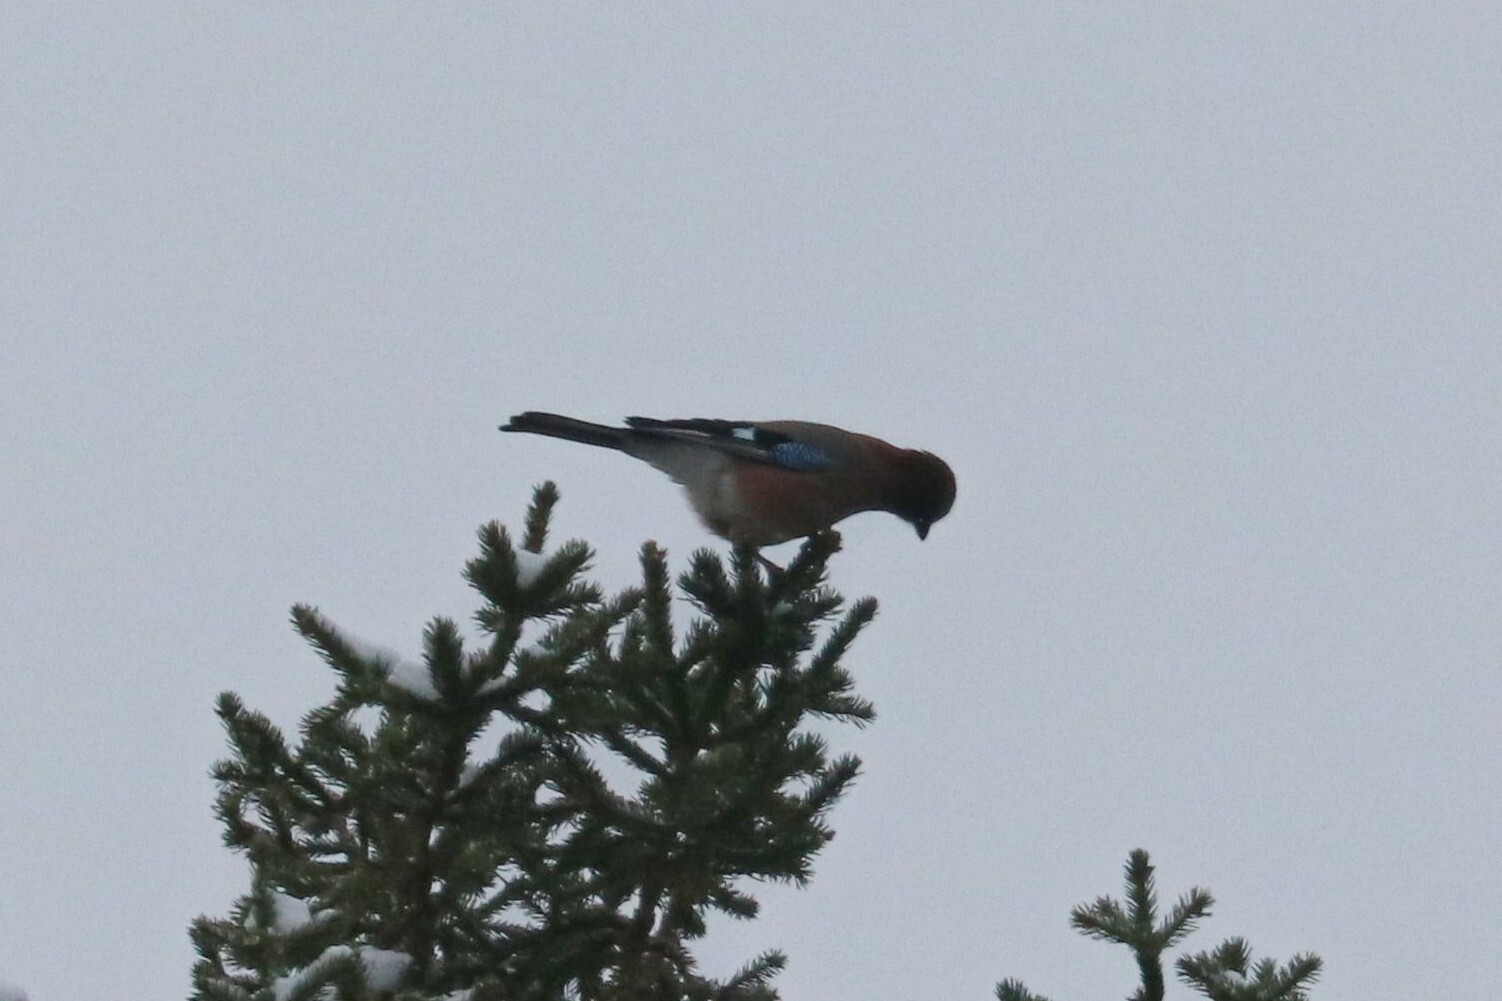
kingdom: Animalia
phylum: Chordata
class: Aves
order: Passeriformes
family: Corvidae
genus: Garrulus
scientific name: Garrulus glandarius
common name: Eurasian jay
